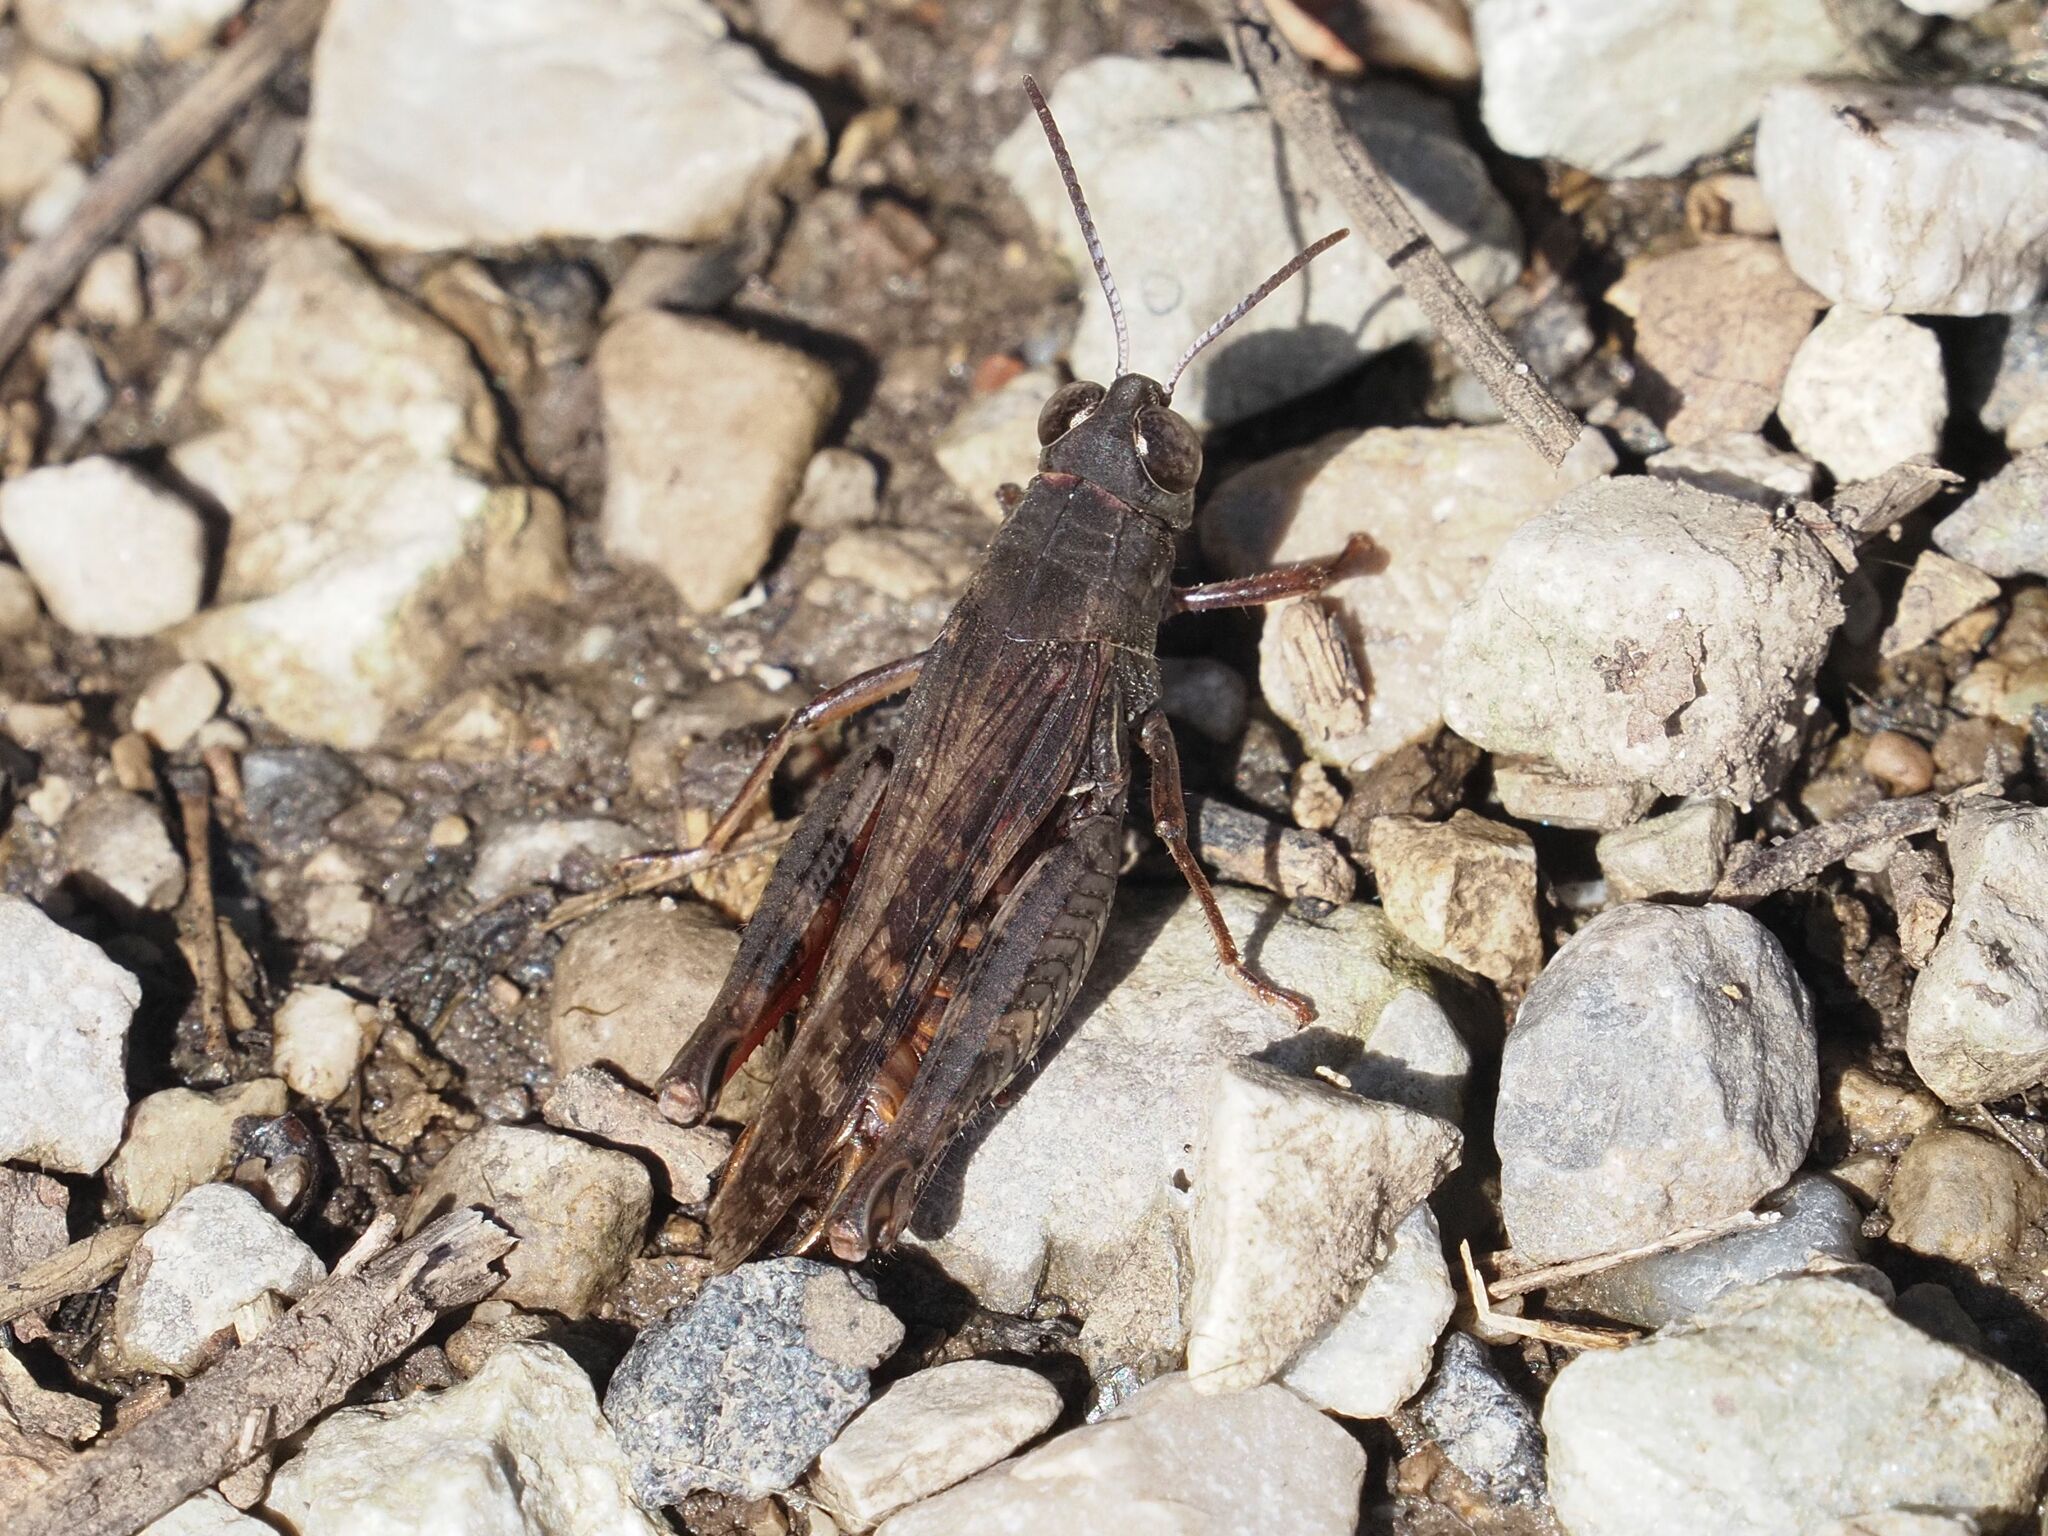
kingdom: Animalia
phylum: Arthropoda
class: Insecta
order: Orthoptera
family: Acrididae
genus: Calliptamus
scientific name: Calliptamus italicus
